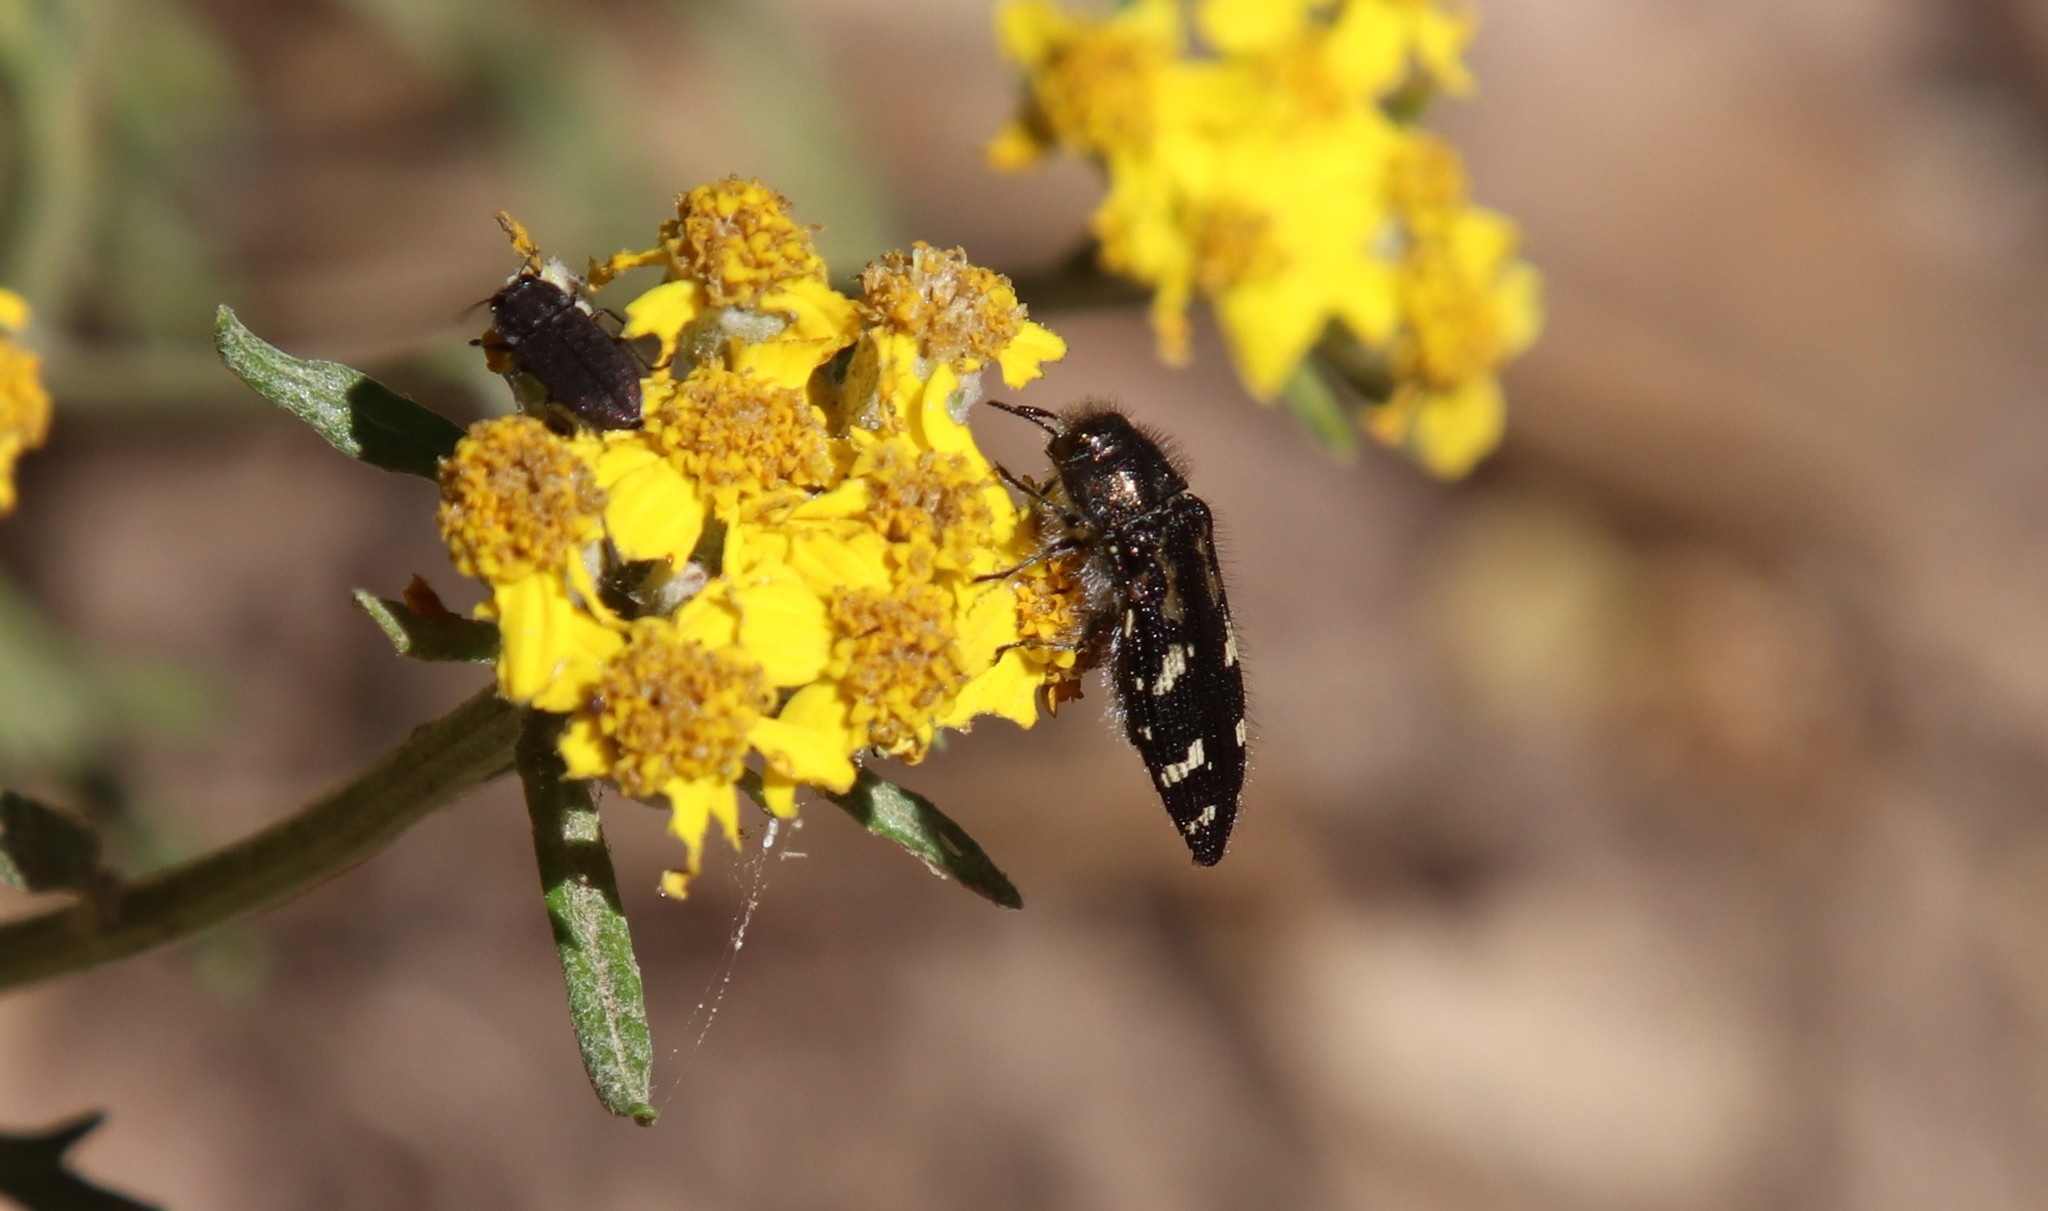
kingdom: Animalia
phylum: Arthropoda
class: Insecta
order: Coleoptera
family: Buprestidae
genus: Acmaeodera
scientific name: Acmaeodera connexa
